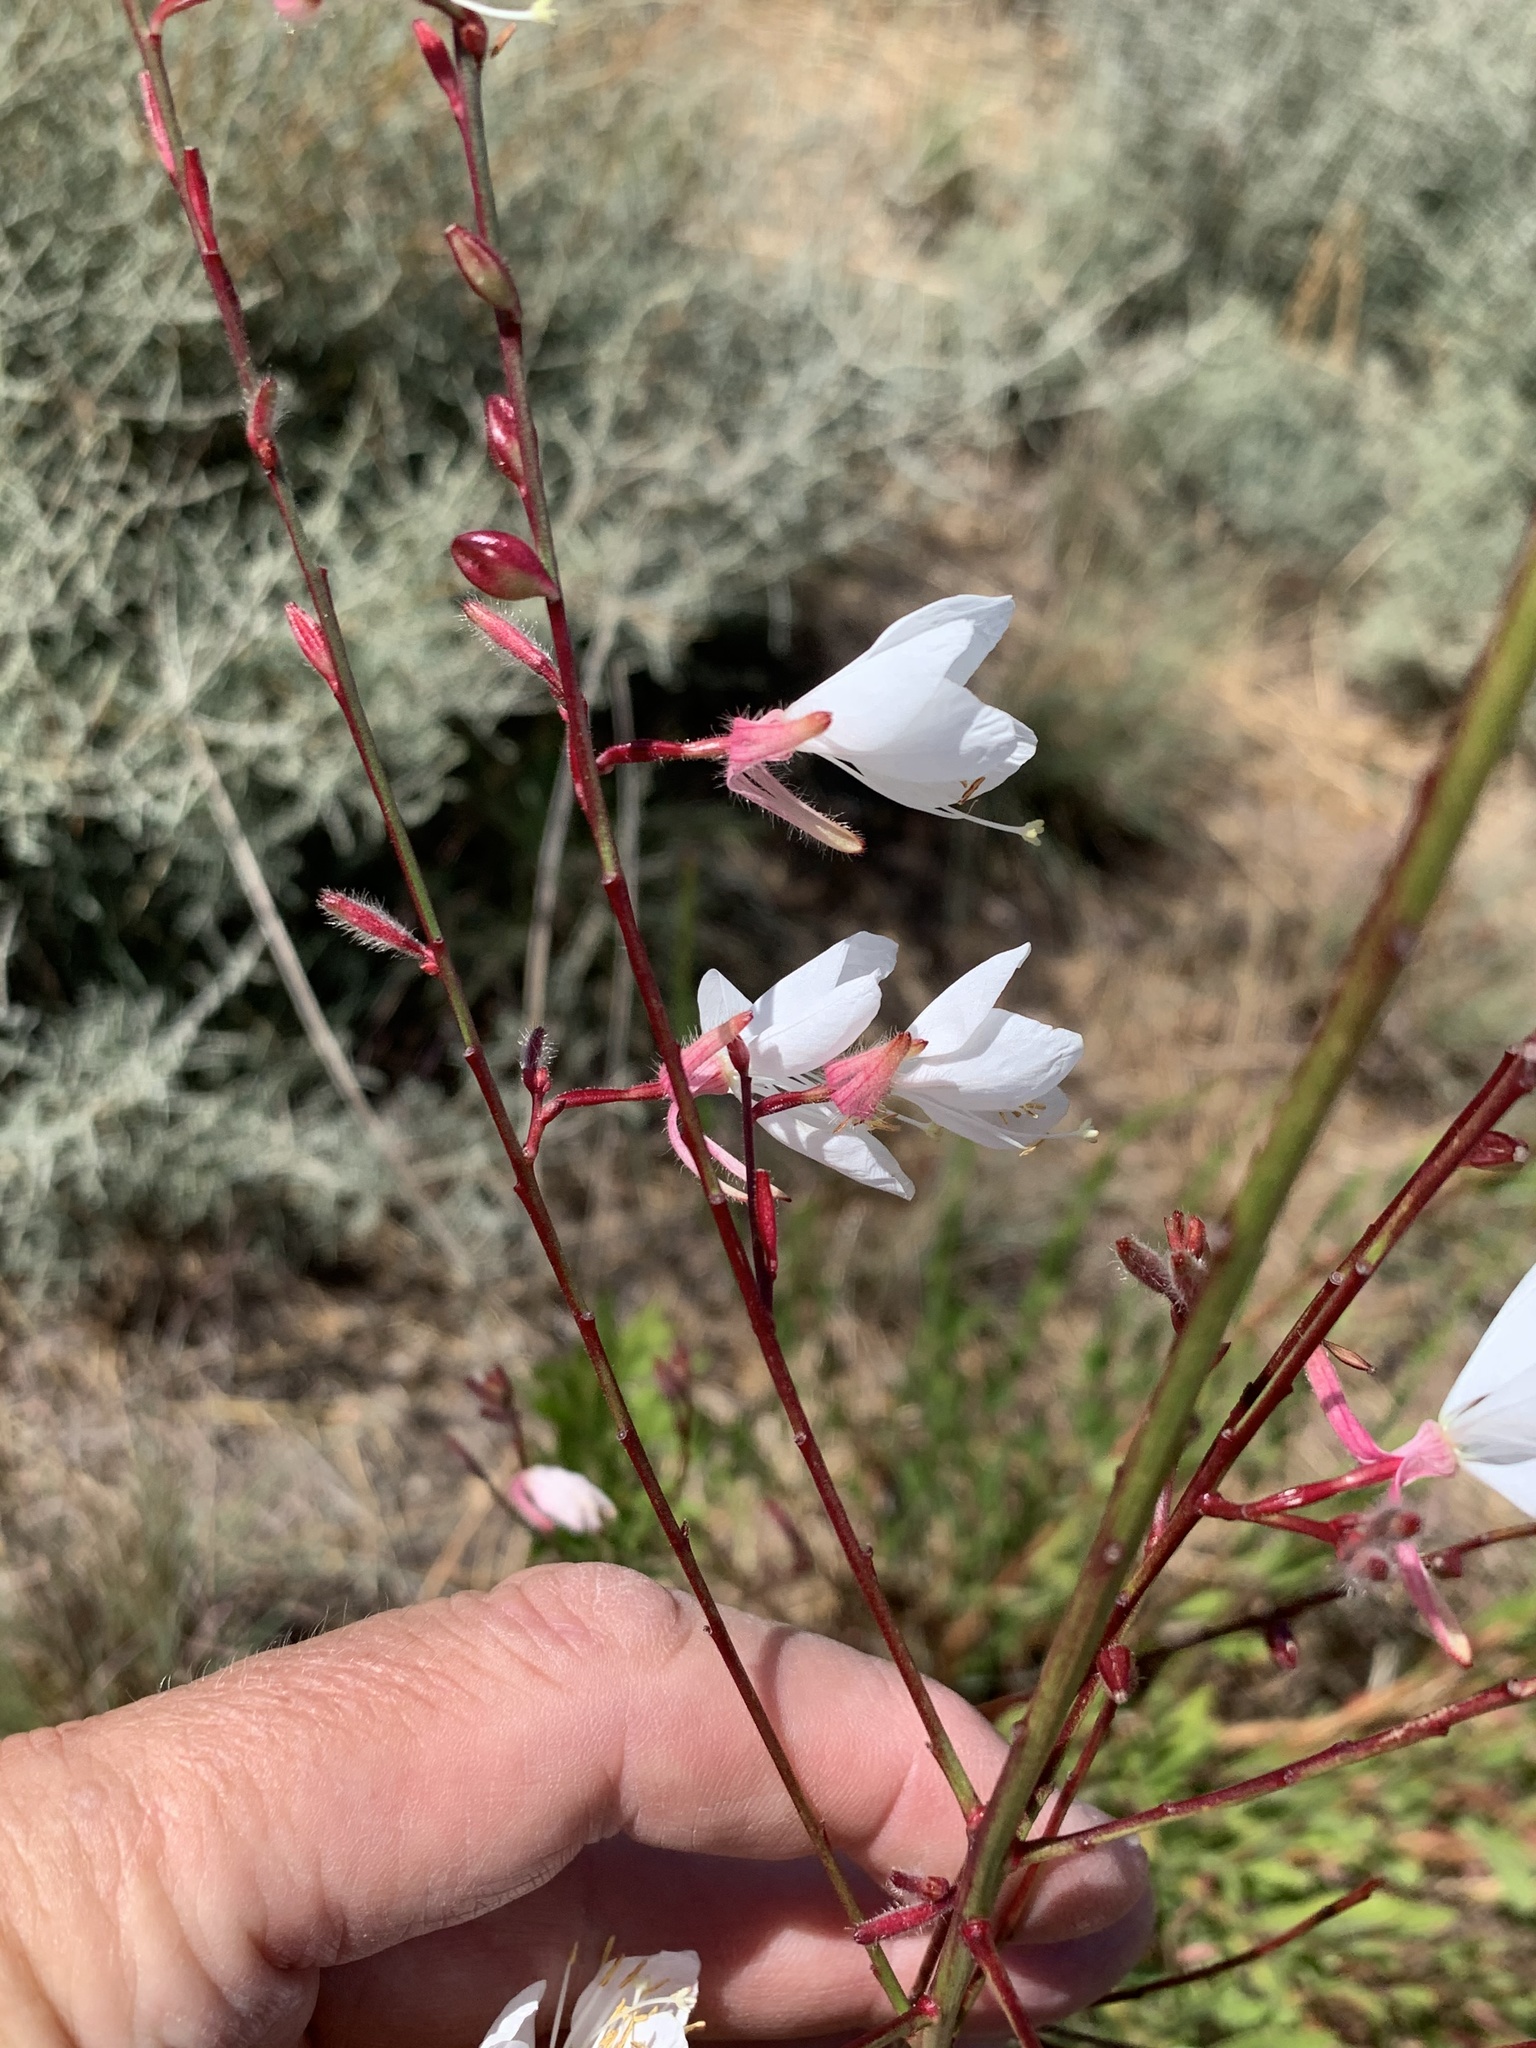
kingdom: Plantae
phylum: Tracheophyta
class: Magnoliopsida
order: Myrtales
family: Onagraceae
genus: Oenothera
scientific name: Oenothera lindheimeri
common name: Lindheimer's beeblossom
